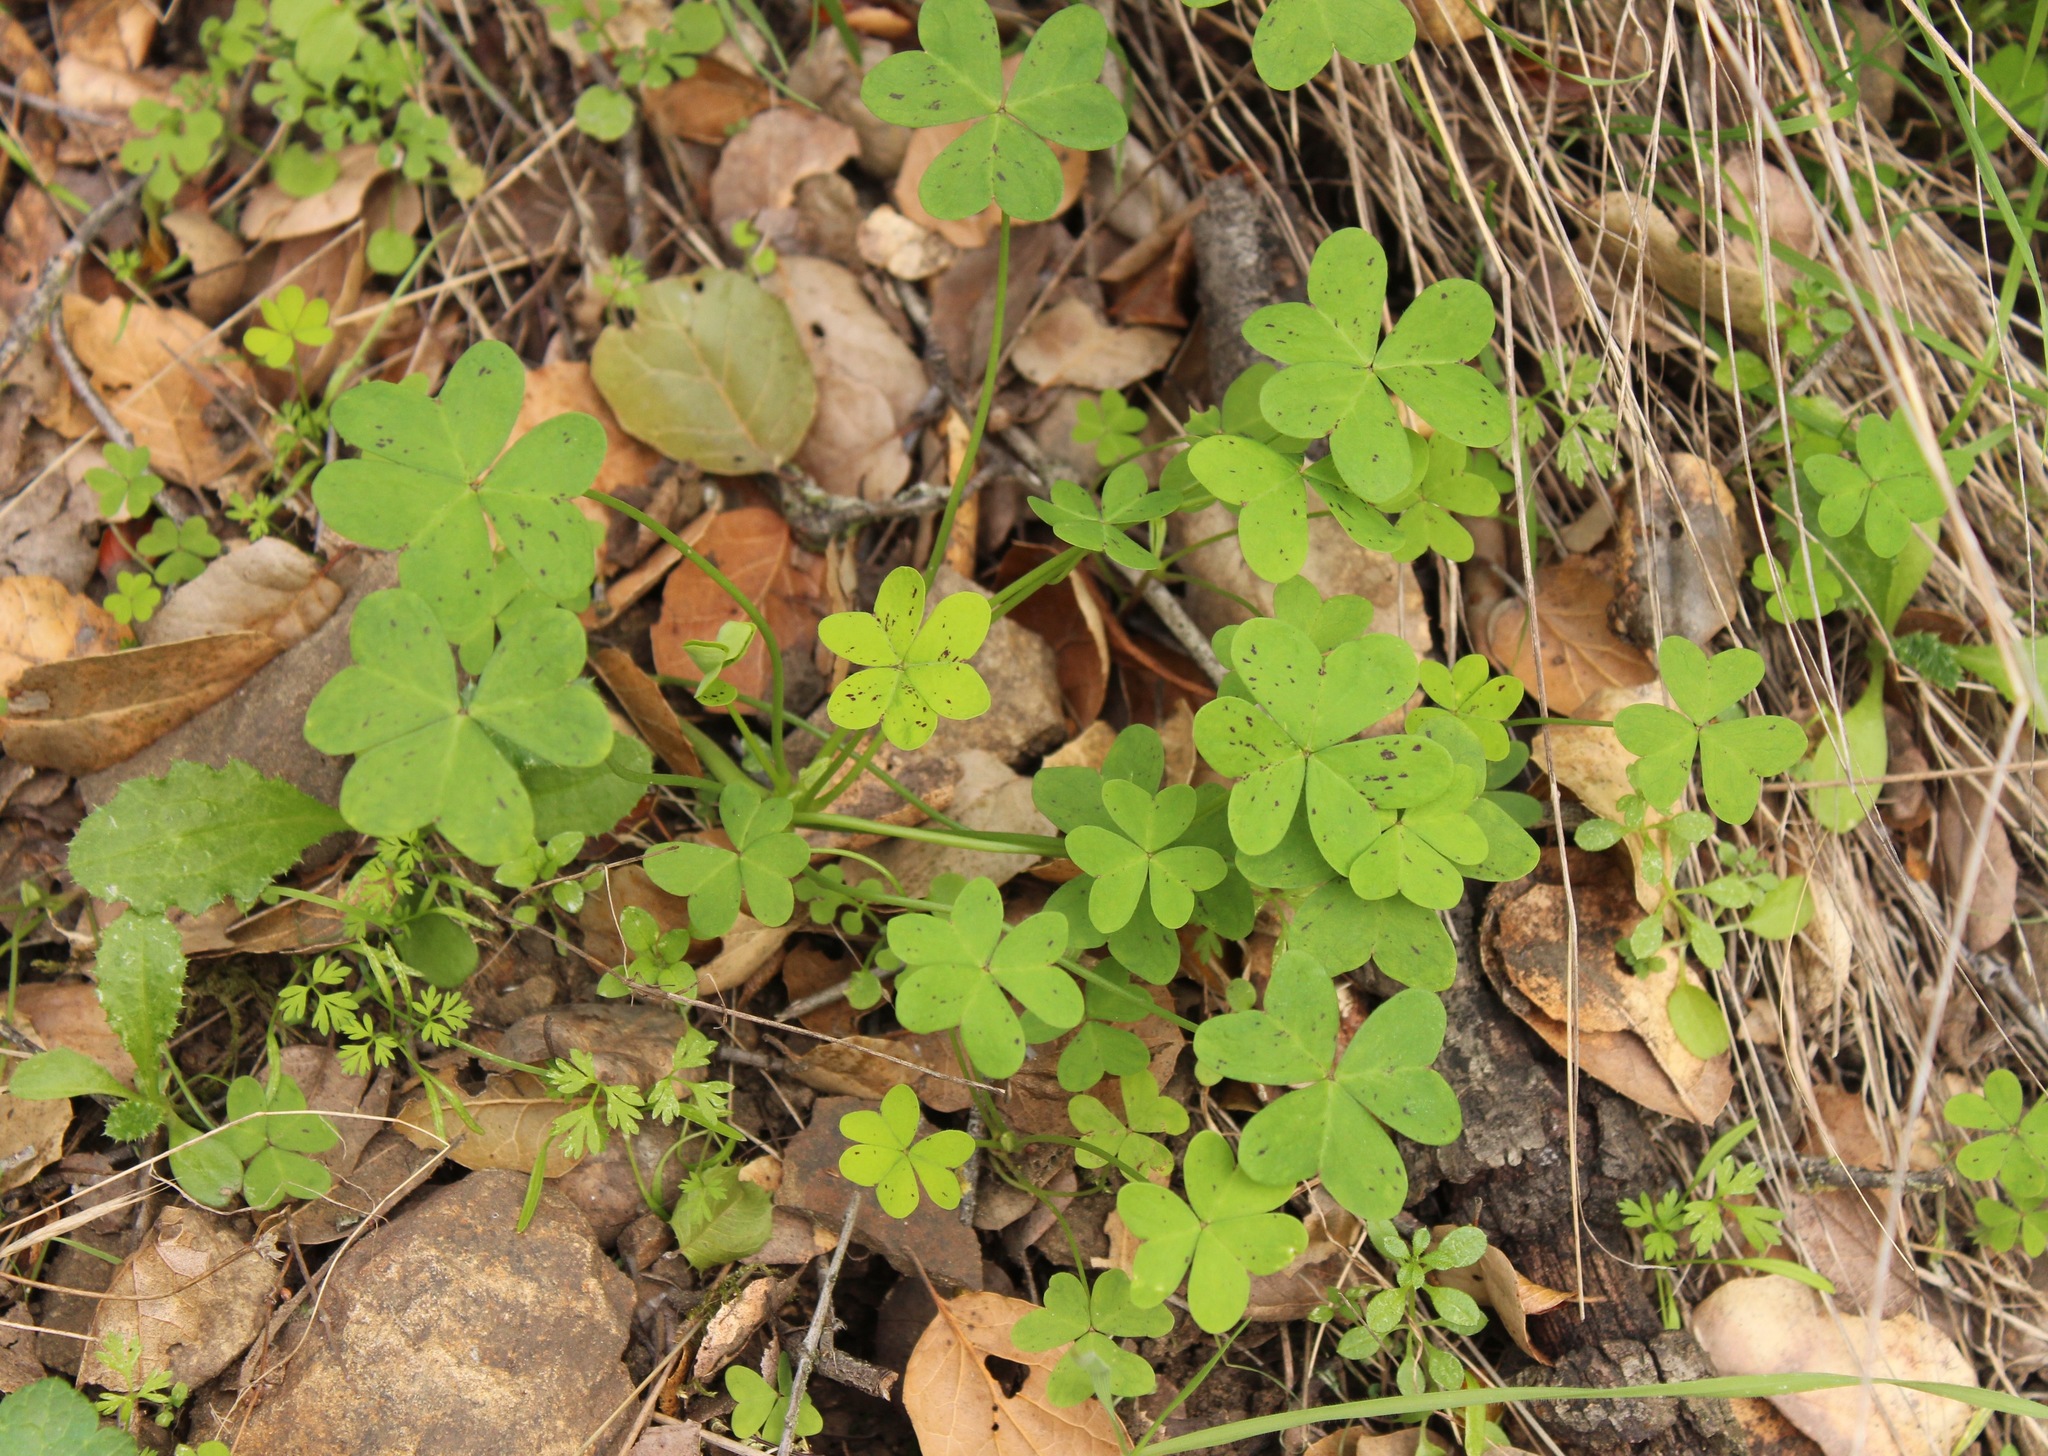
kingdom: Plantae
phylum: Tracheophyta
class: Magnoliopsida
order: Oxalidales
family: Oxalidaceae
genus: Oxalis
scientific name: Oxalis pes-caprae
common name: Bermuda-buttercup
